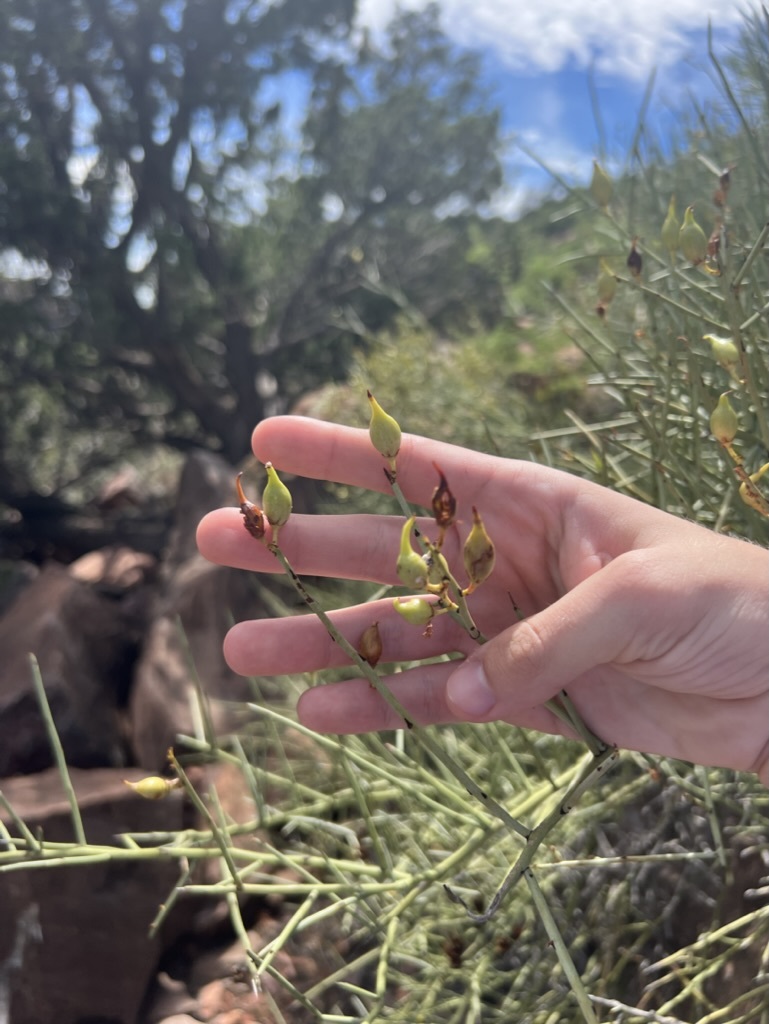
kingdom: Plantae
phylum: Tracheophyta
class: Magnoliopsida
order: Celastrales
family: Celastraceae
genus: Canotia
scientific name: Canotia holacantha
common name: Crucifixion thorns
